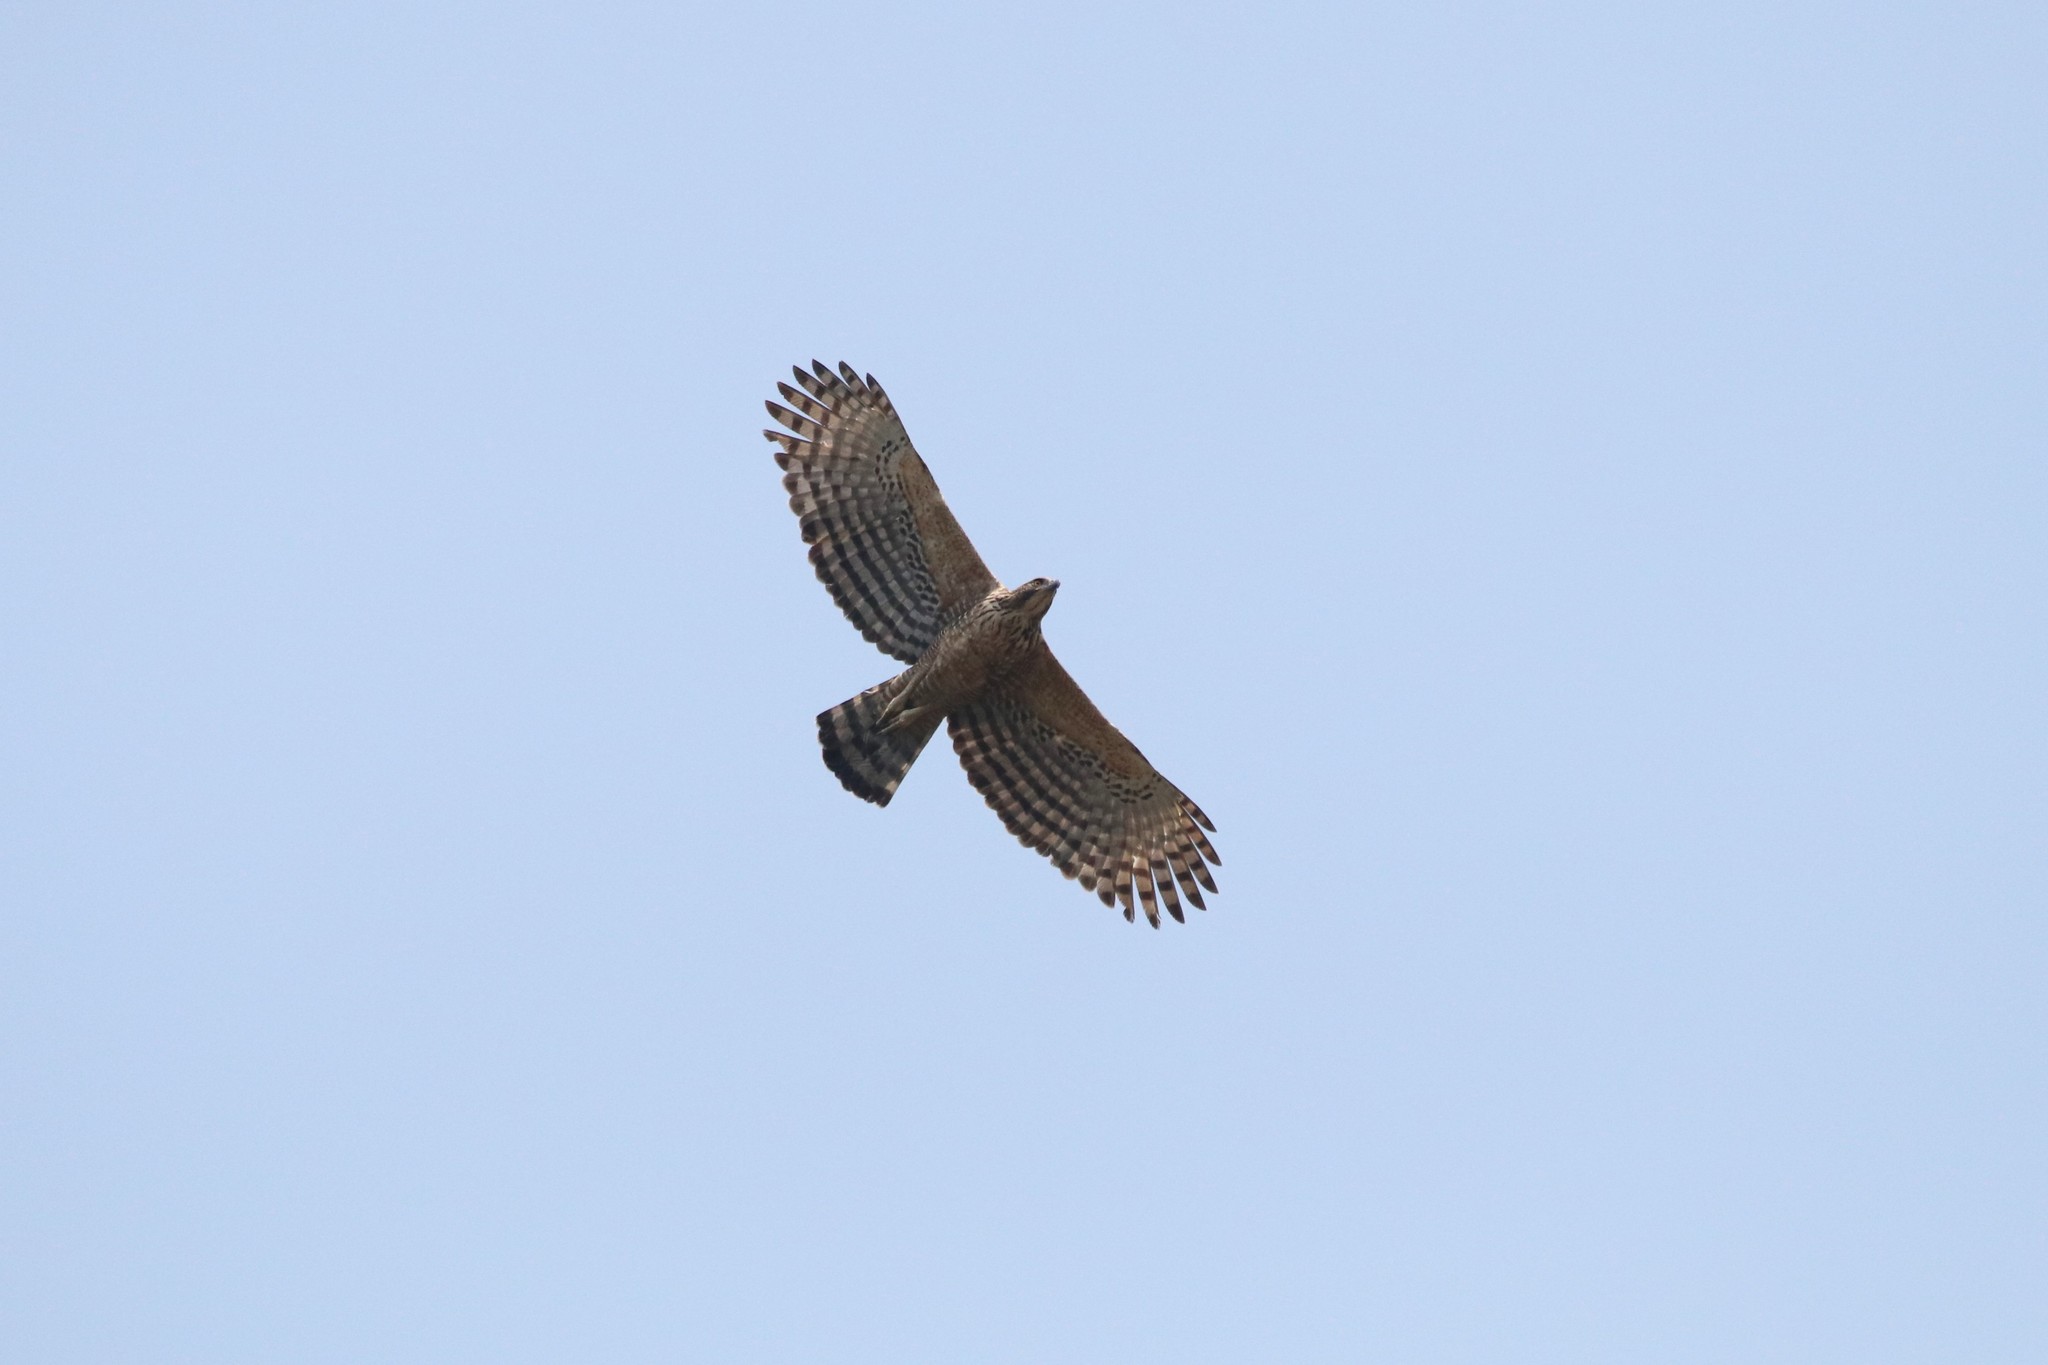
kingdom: Animalia
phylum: Chordata
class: Aves
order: Accipitriformes
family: Accipitridae
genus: Nisaetus
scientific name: Nisaetus nipalensis
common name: Mountain hawk-eagle
